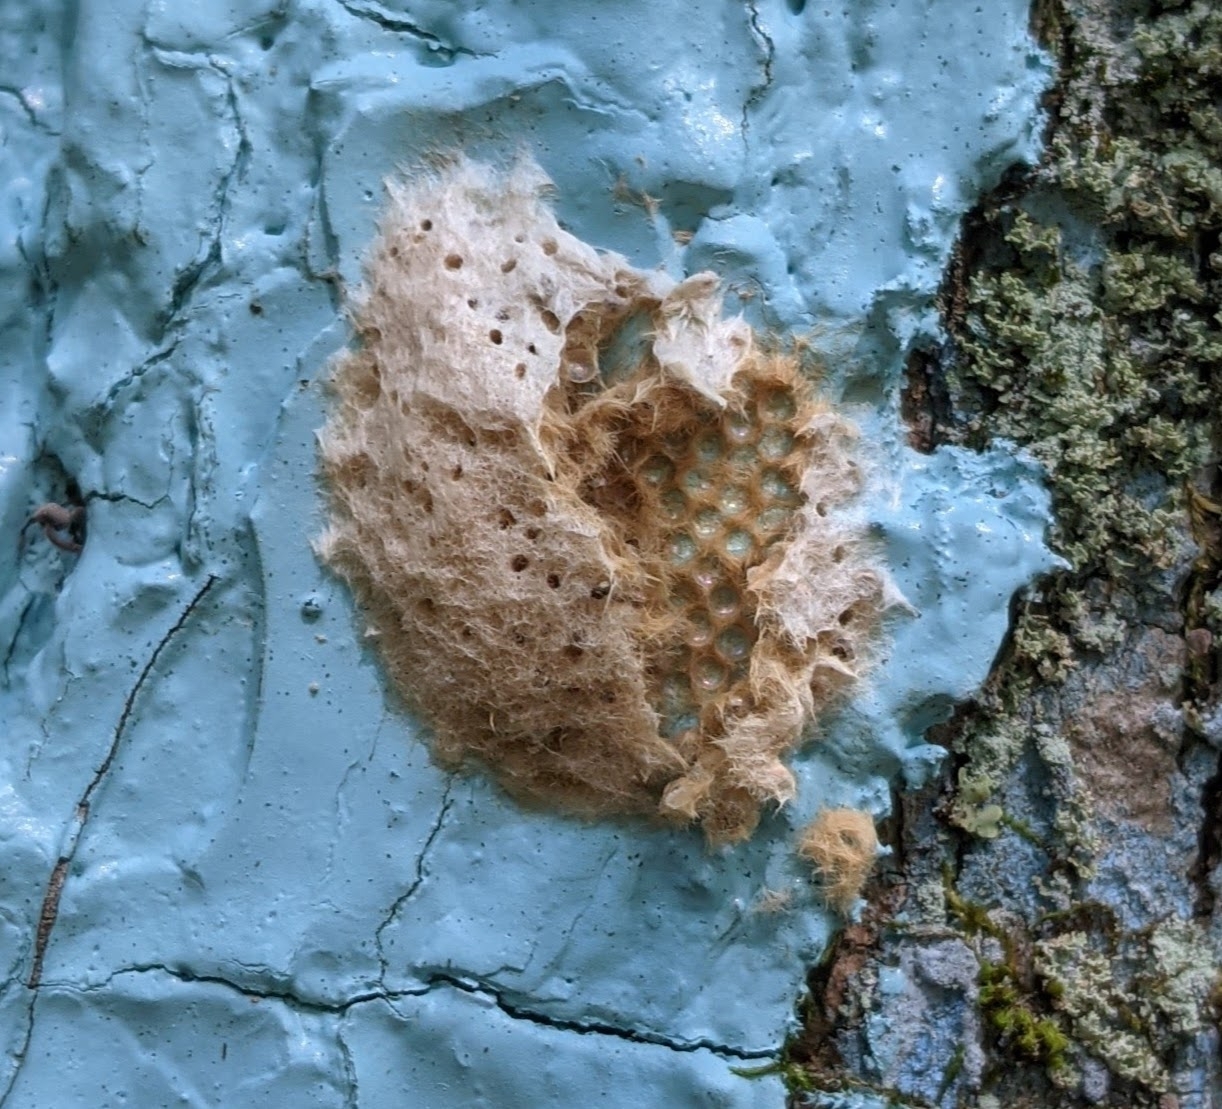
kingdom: Animalia
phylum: Arthropoda
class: Insecta
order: Lepidoptera
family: Erebidae
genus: Lymantria
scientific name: Lymantria dispar
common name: Gypsy moth
